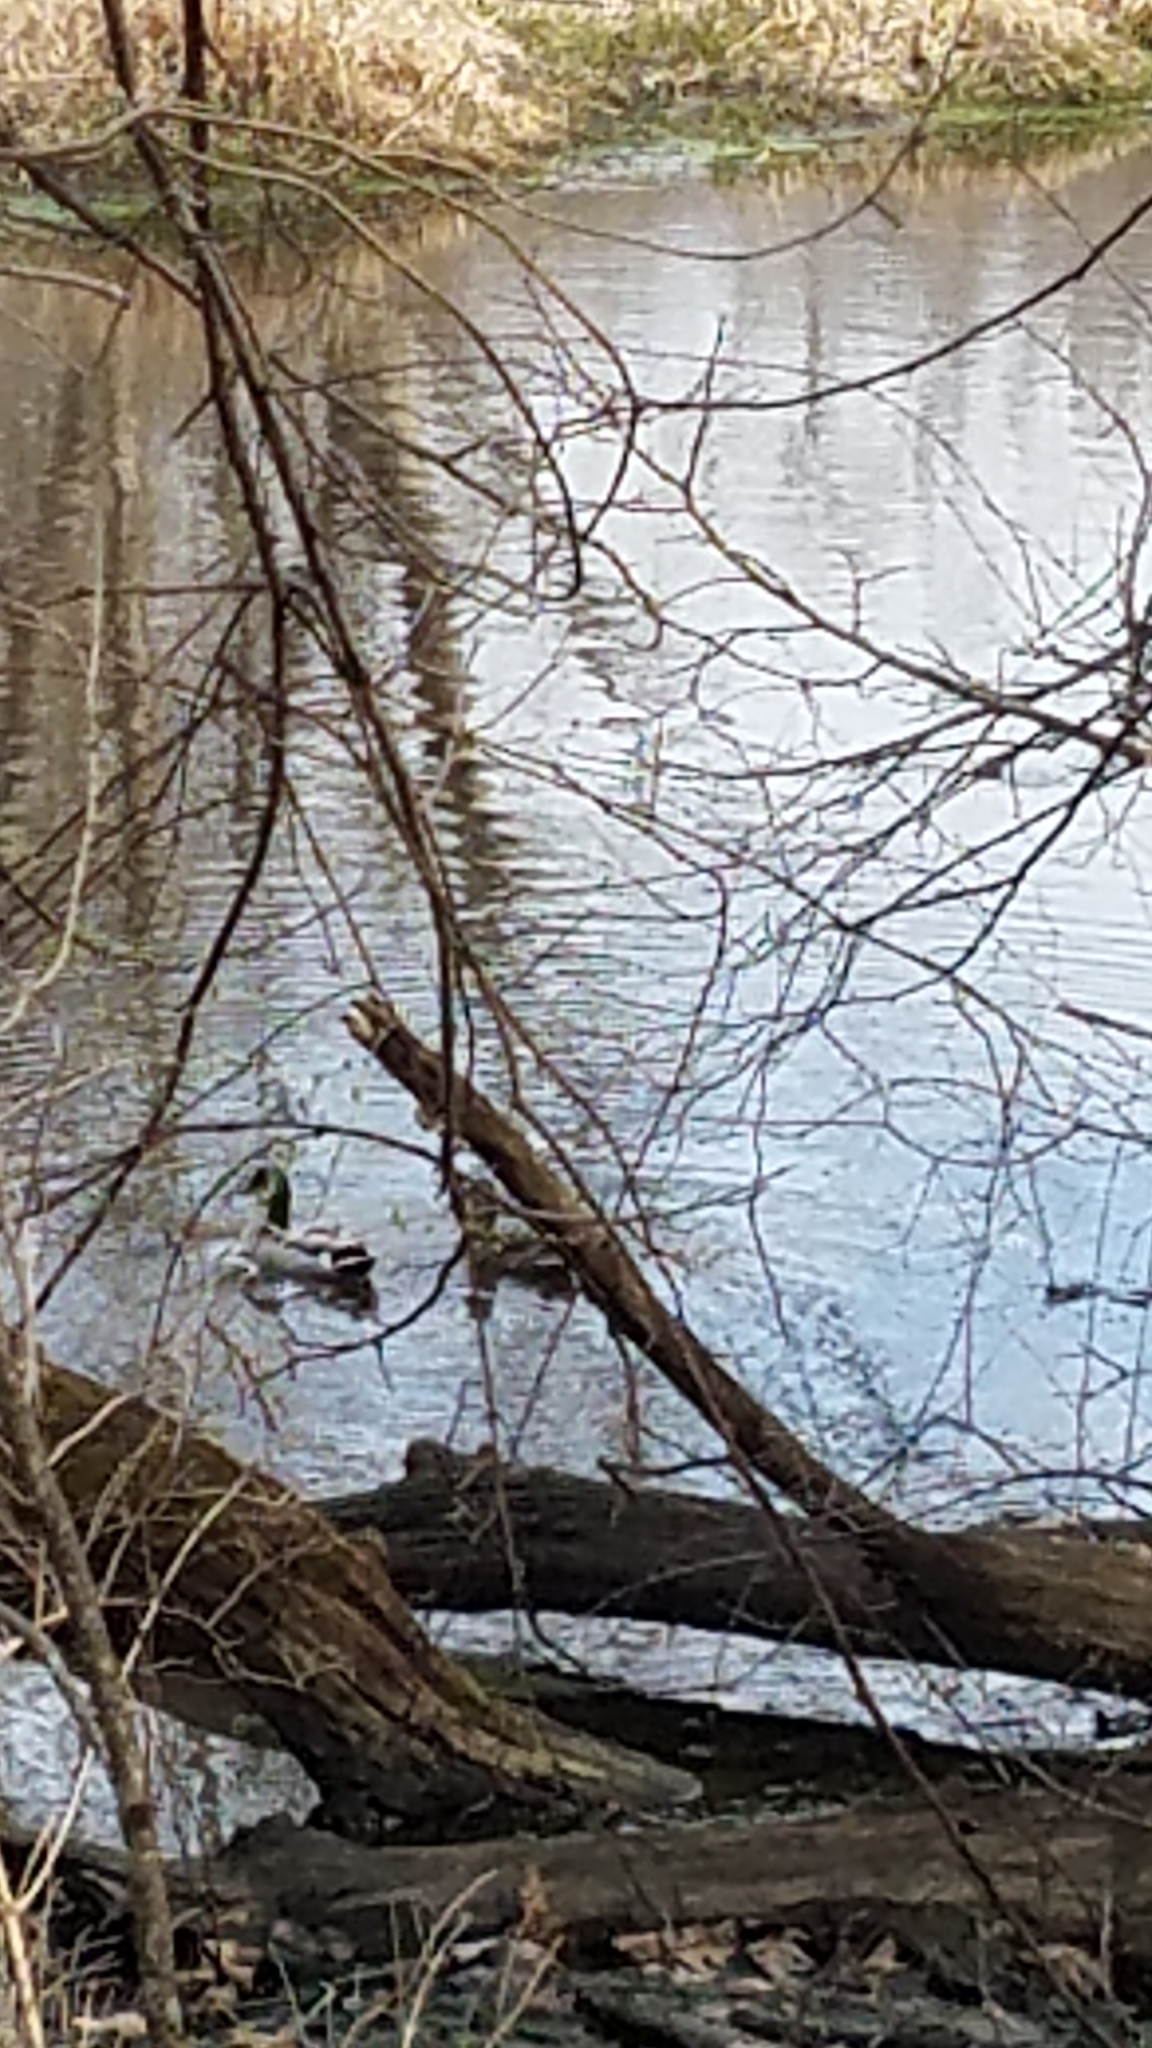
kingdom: Animalia
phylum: Chordata
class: Aves
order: Anseriformes
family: Anatidae
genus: Anas
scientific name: Anas platyrhynchos
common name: Mallard
